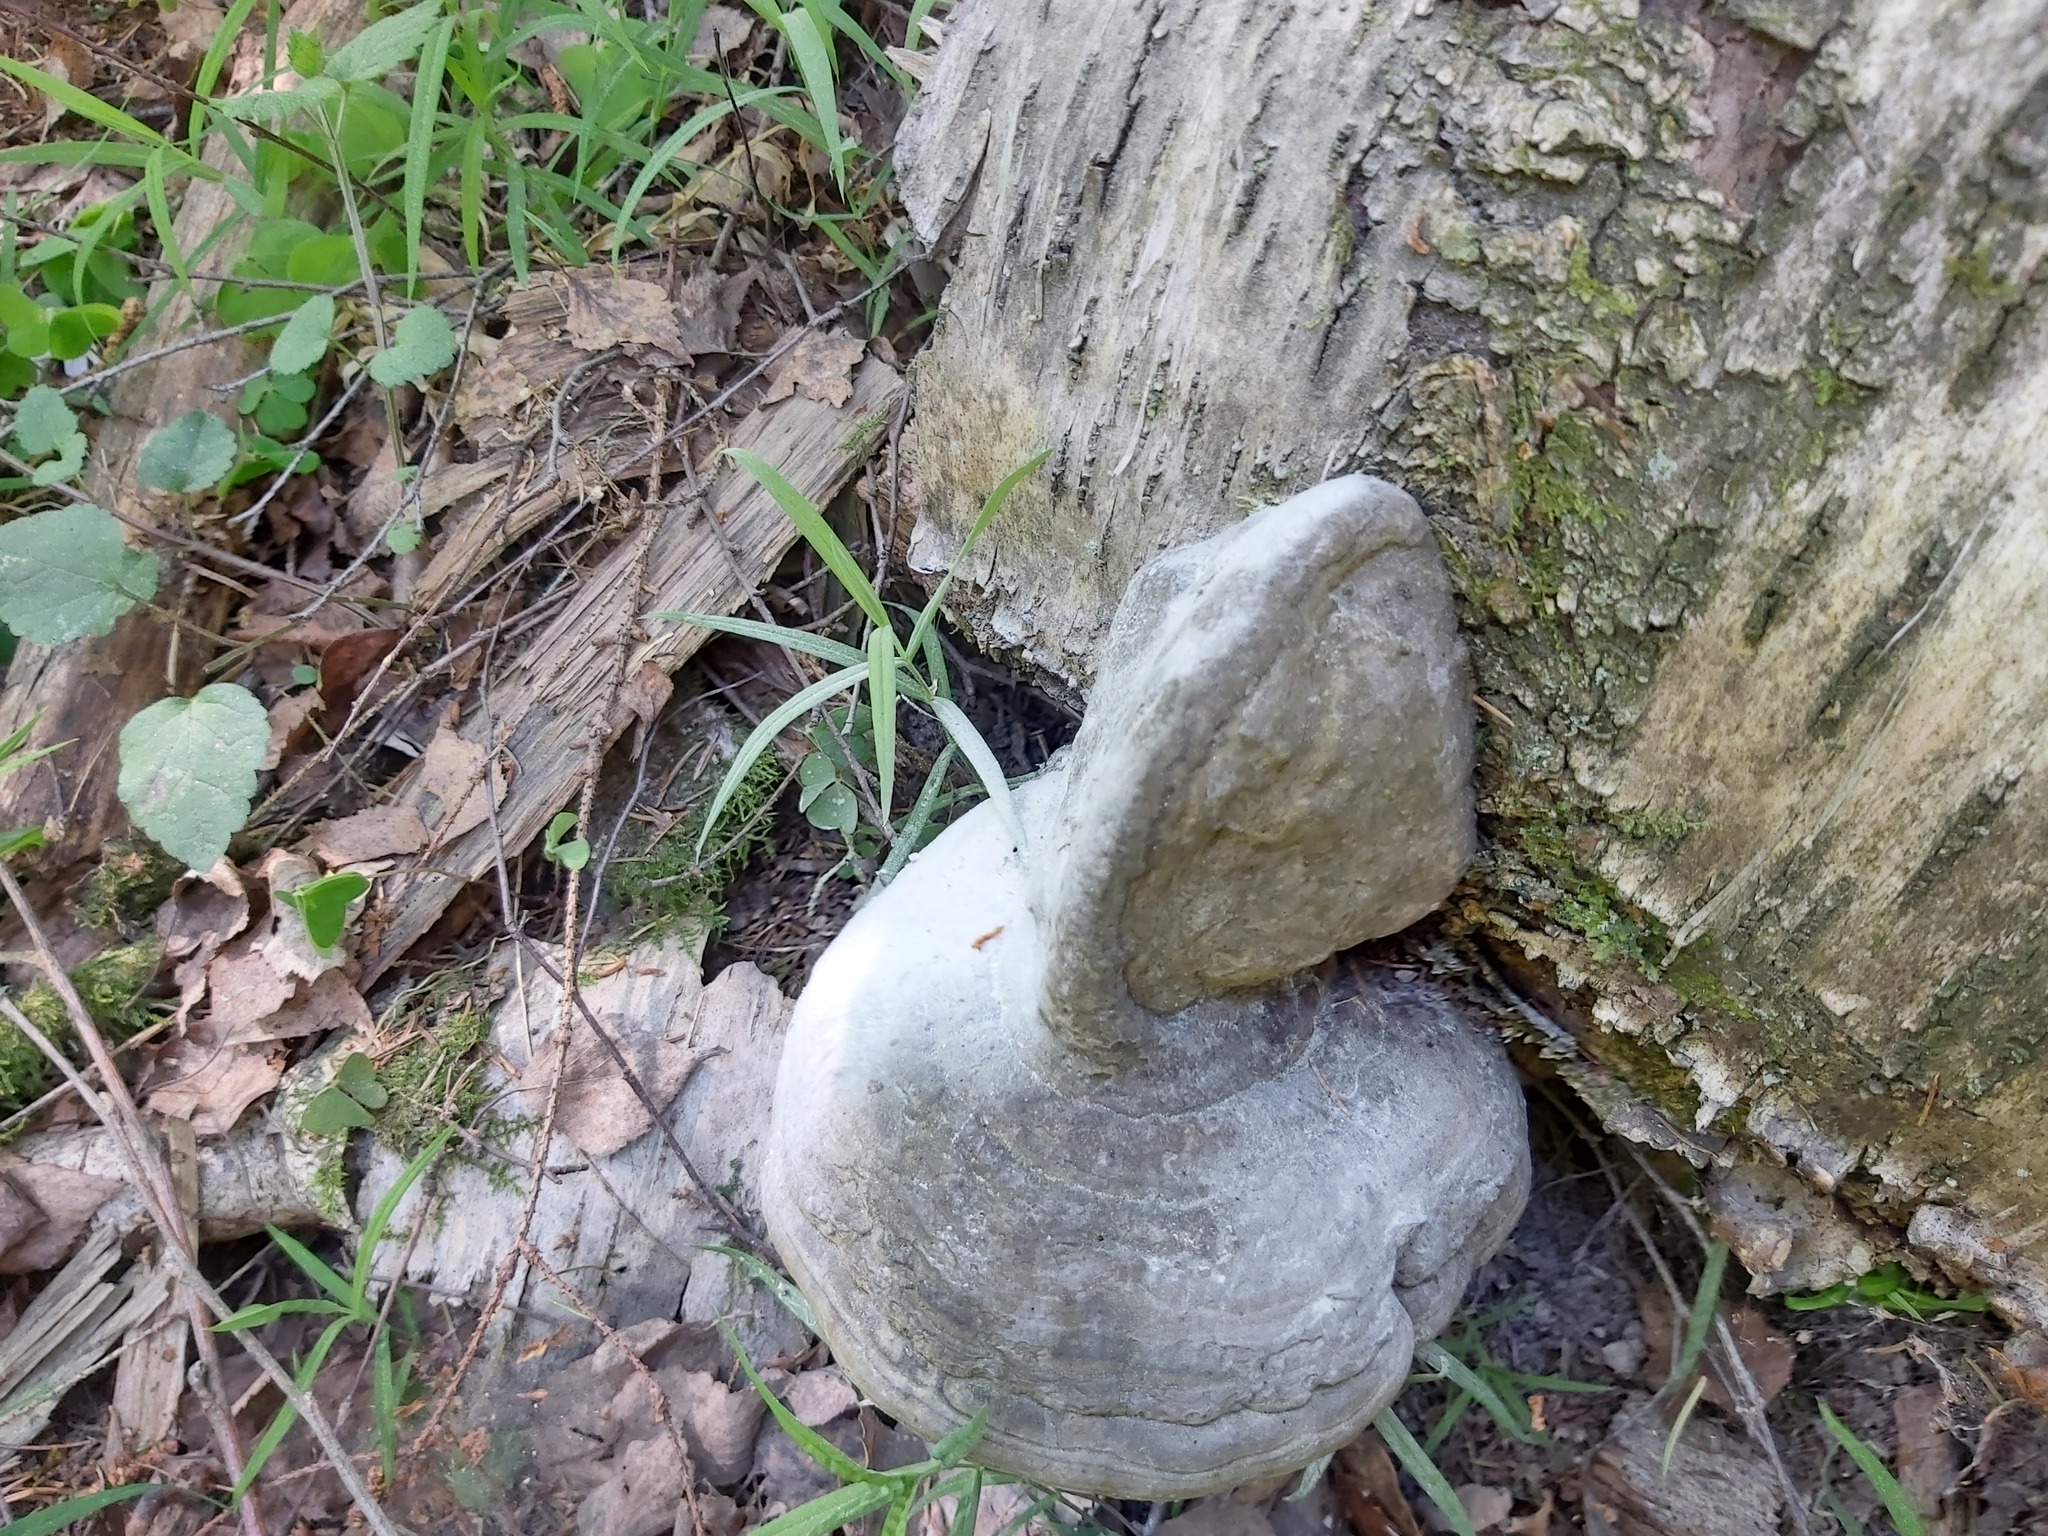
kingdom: Fungi
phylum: Basidiomycota
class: Agaricomycetes
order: Polyporales
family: Polyporaceae
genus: Fomes
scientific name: Fomes fomentarius
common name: Hoof fungus
